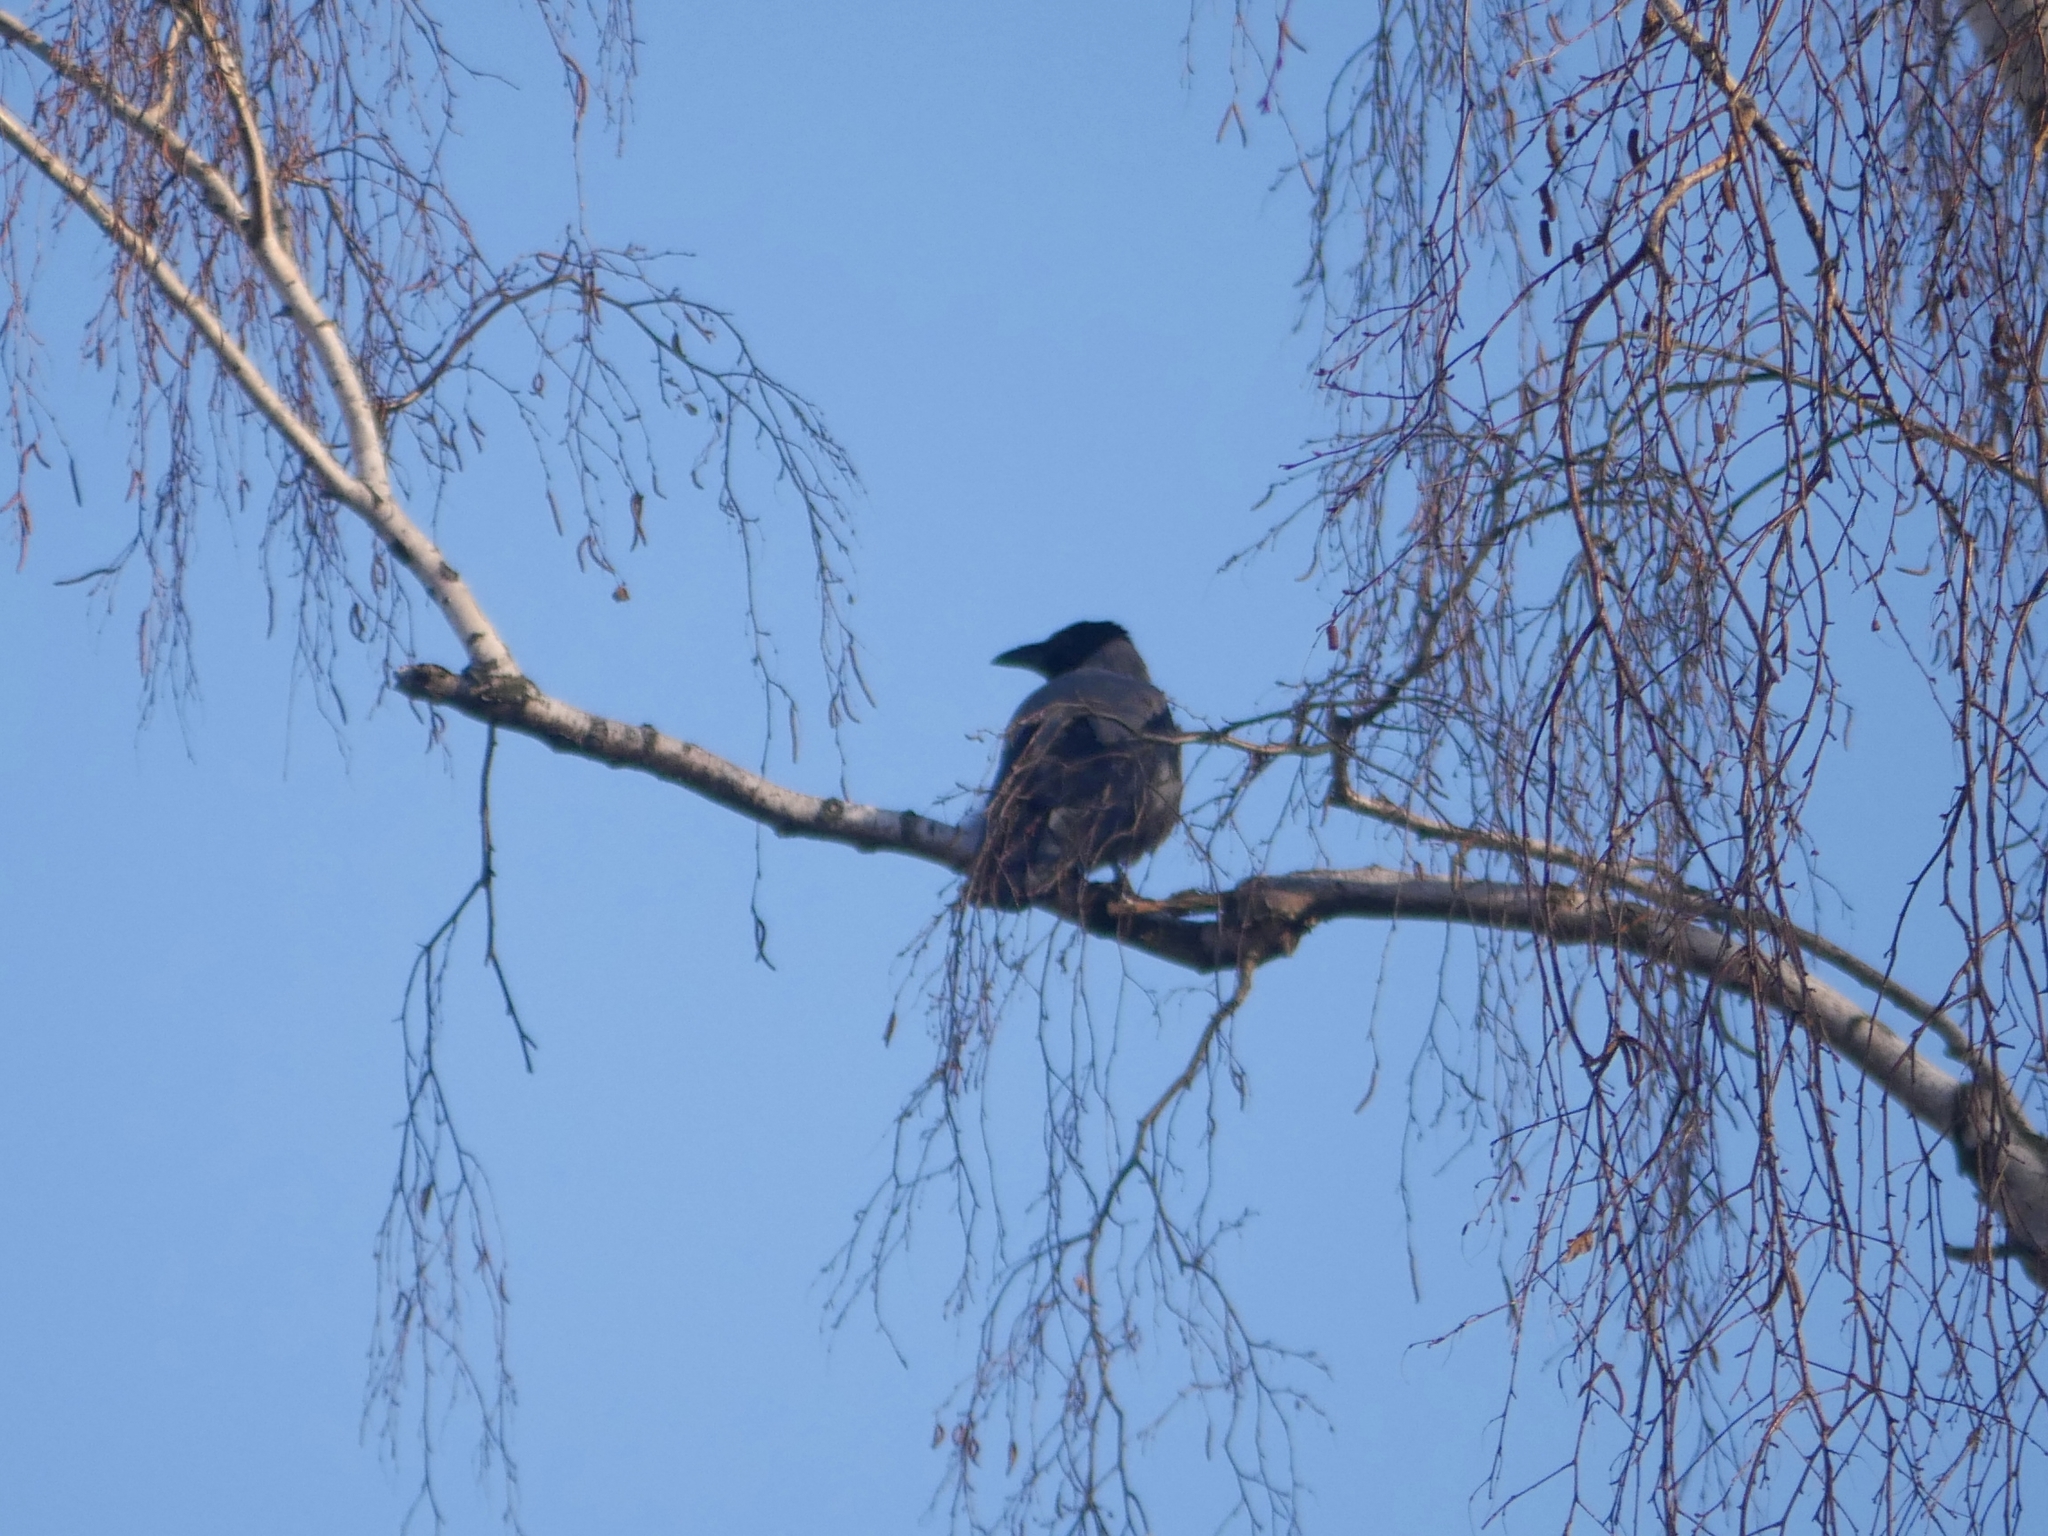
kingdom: Animalia
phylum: Chordata
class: Aves
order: Passeriformes
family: Corvidae
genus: Corvus
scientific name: Corvus cornix
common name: Hooded crow
